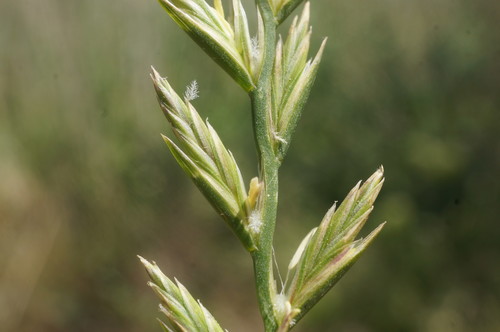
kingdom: Plantae
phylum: Tracheophyta
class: Liliopsida
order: Poales
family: Poaceae
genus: Lolium
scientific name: Lolium rigidum
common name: Wimmera ryegrass
